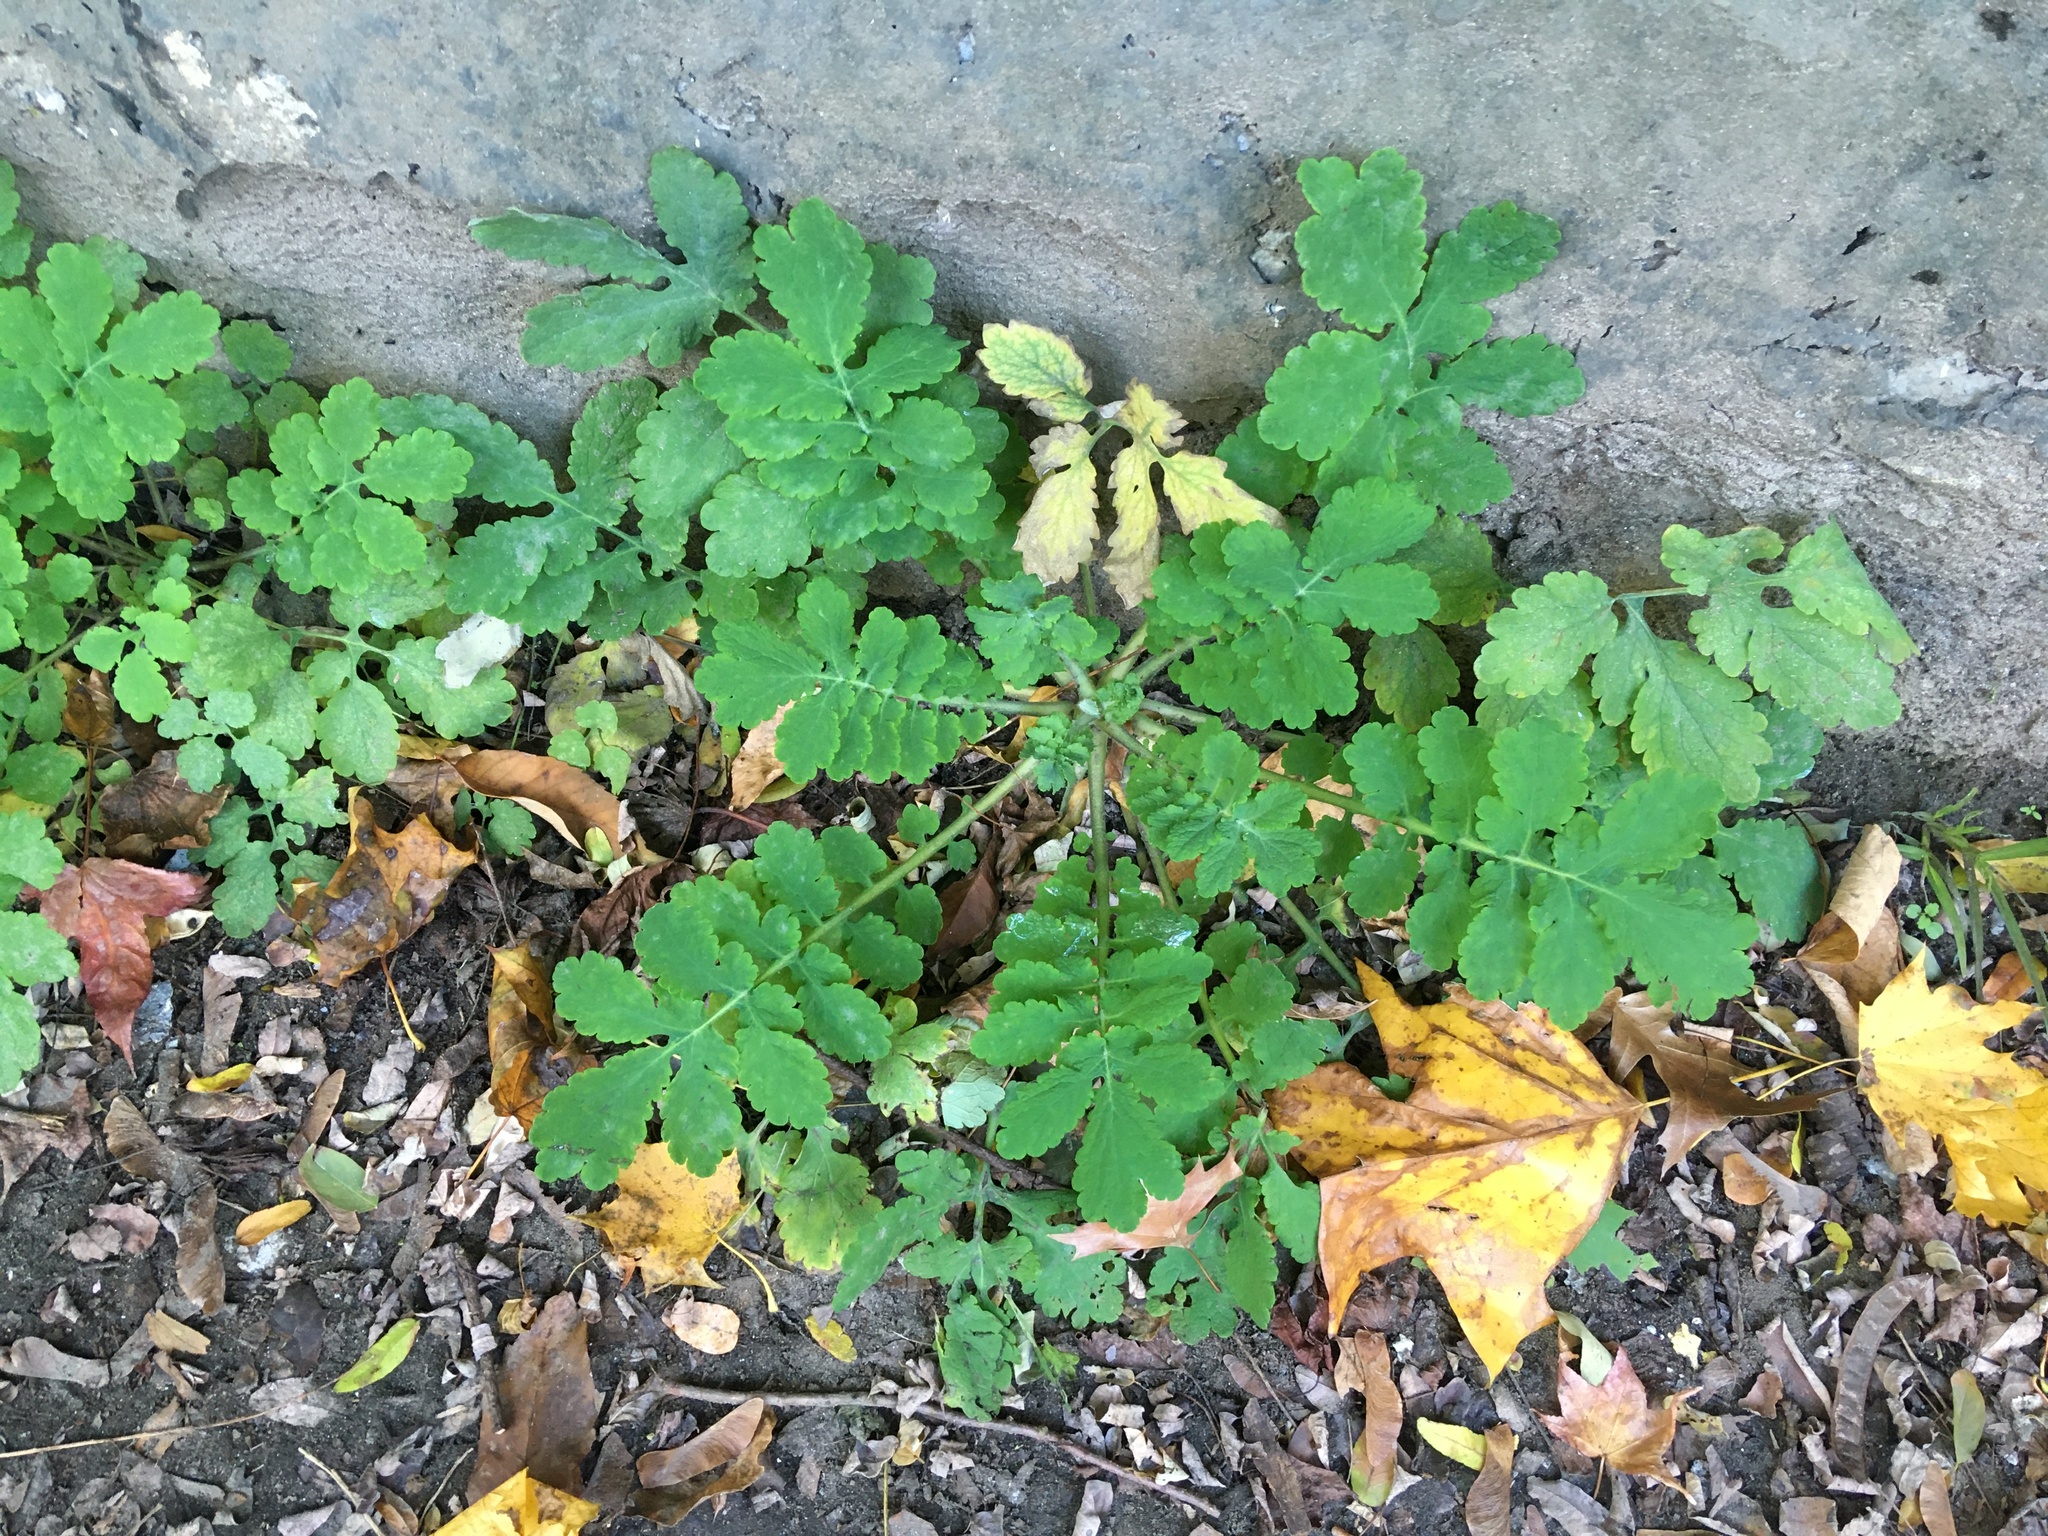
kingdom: Plantae
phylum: Tracheophyta
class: Magnoliopsida
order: Ranunculales
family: Papaveraceae
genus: Chelidonium
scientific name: Chelidonium majus
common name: Greater celandine
